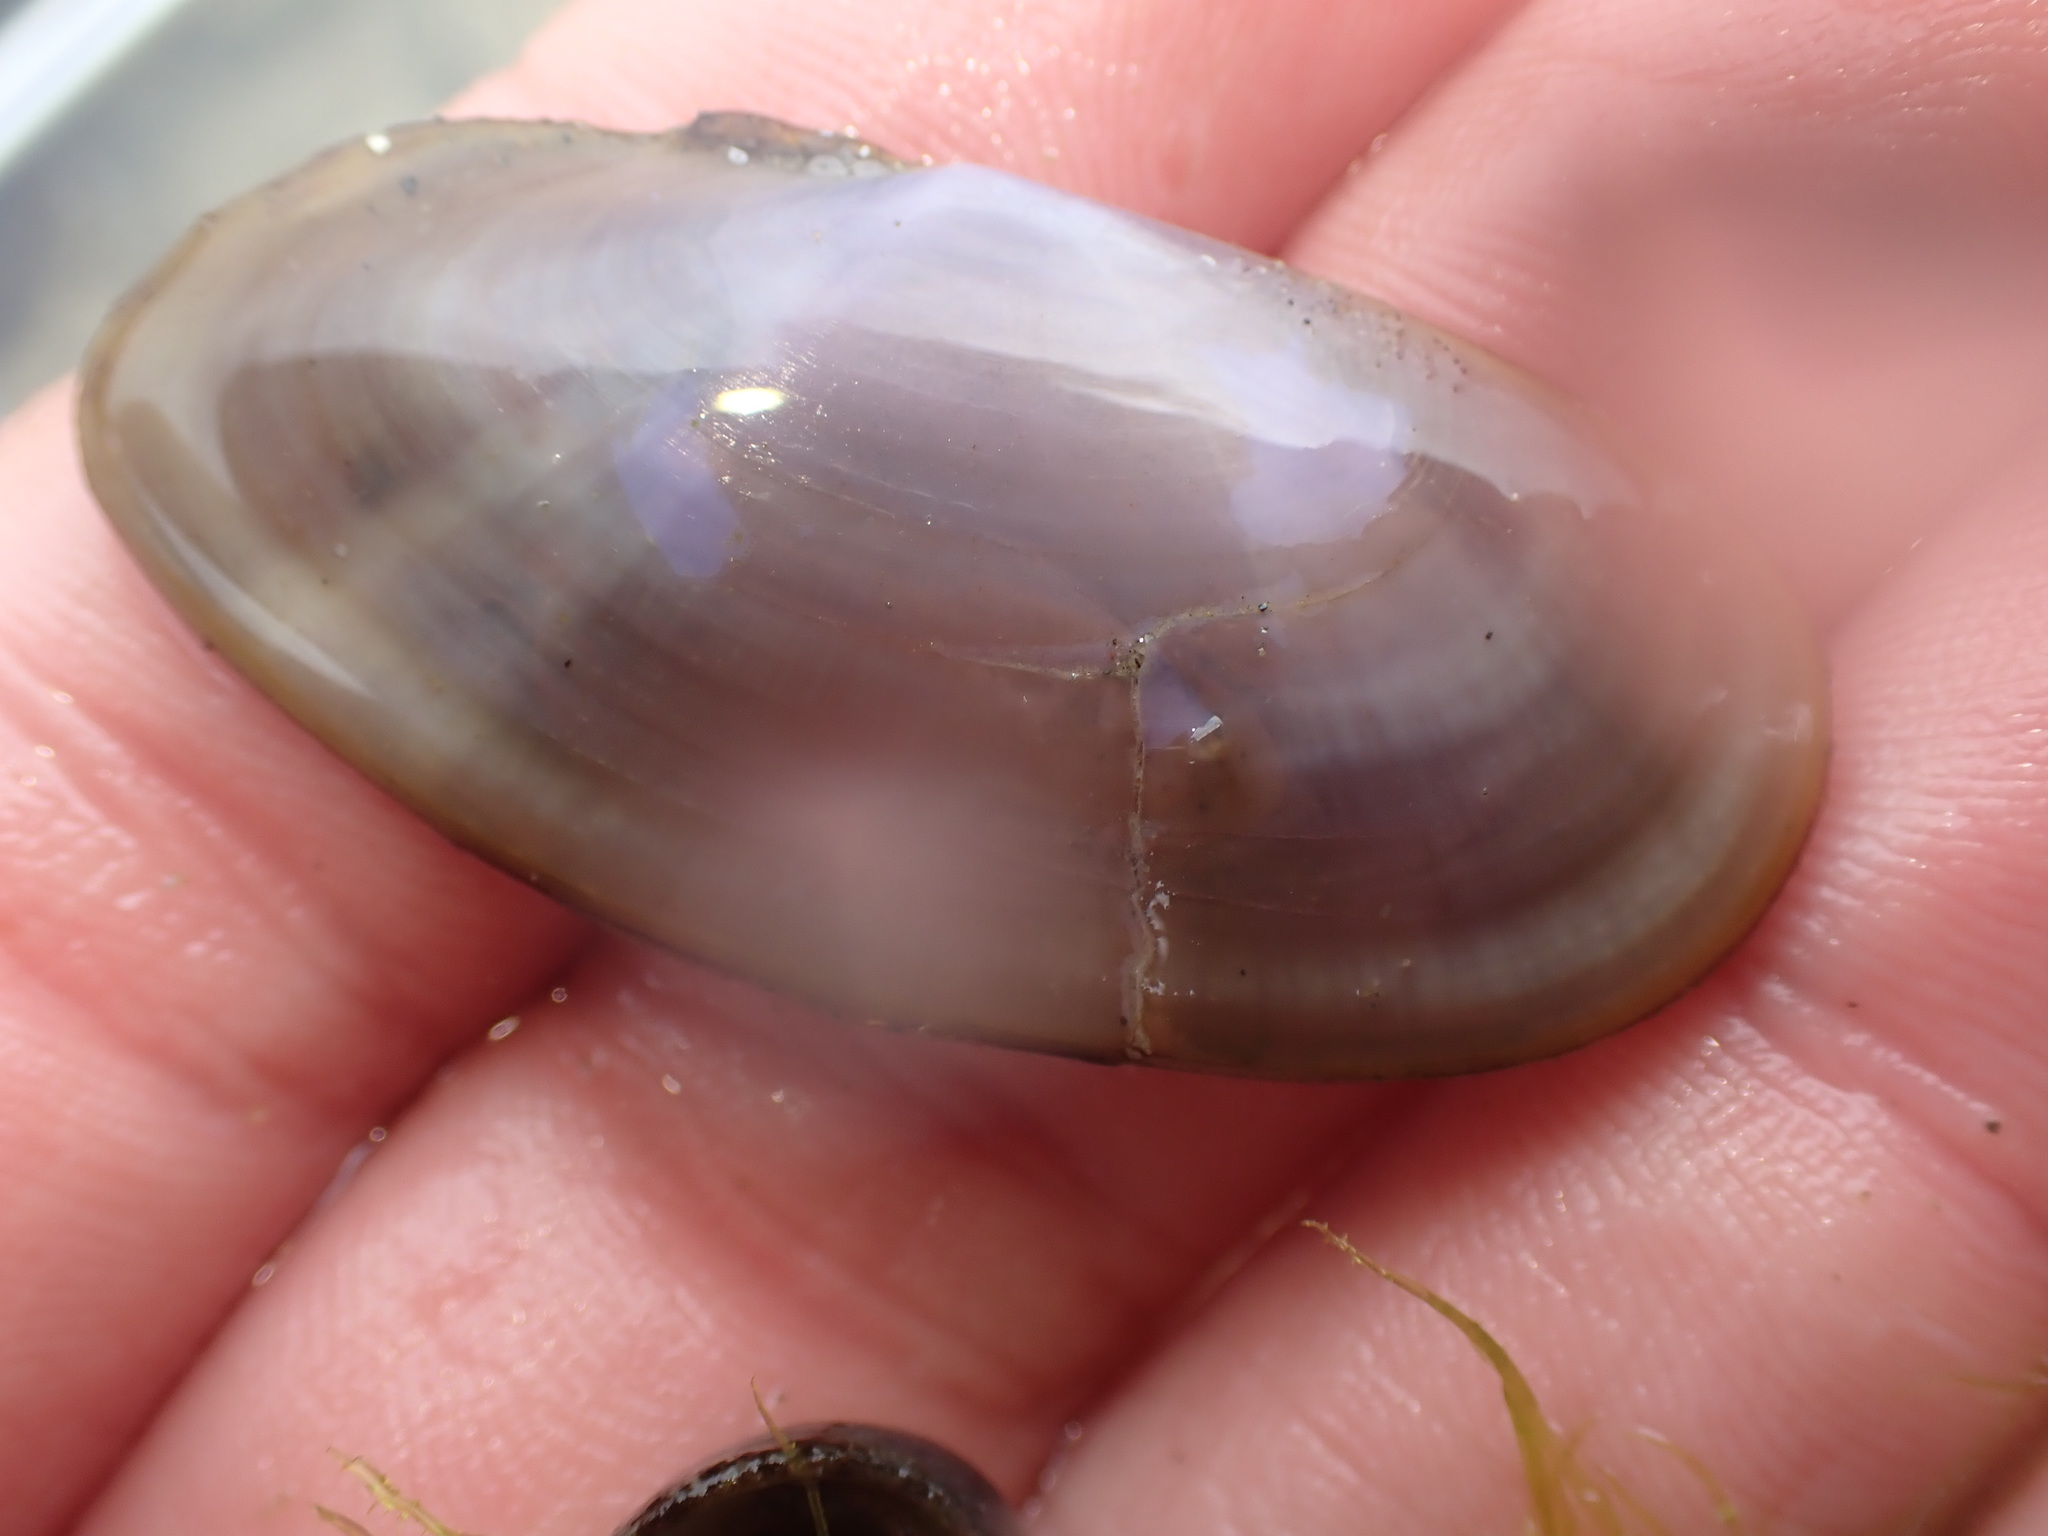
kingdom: Animalia
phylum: Mollusca
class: Bivalvia
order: Cardiida
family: Psammobiidae
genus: Hiatula
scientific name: Hiatula nitida
